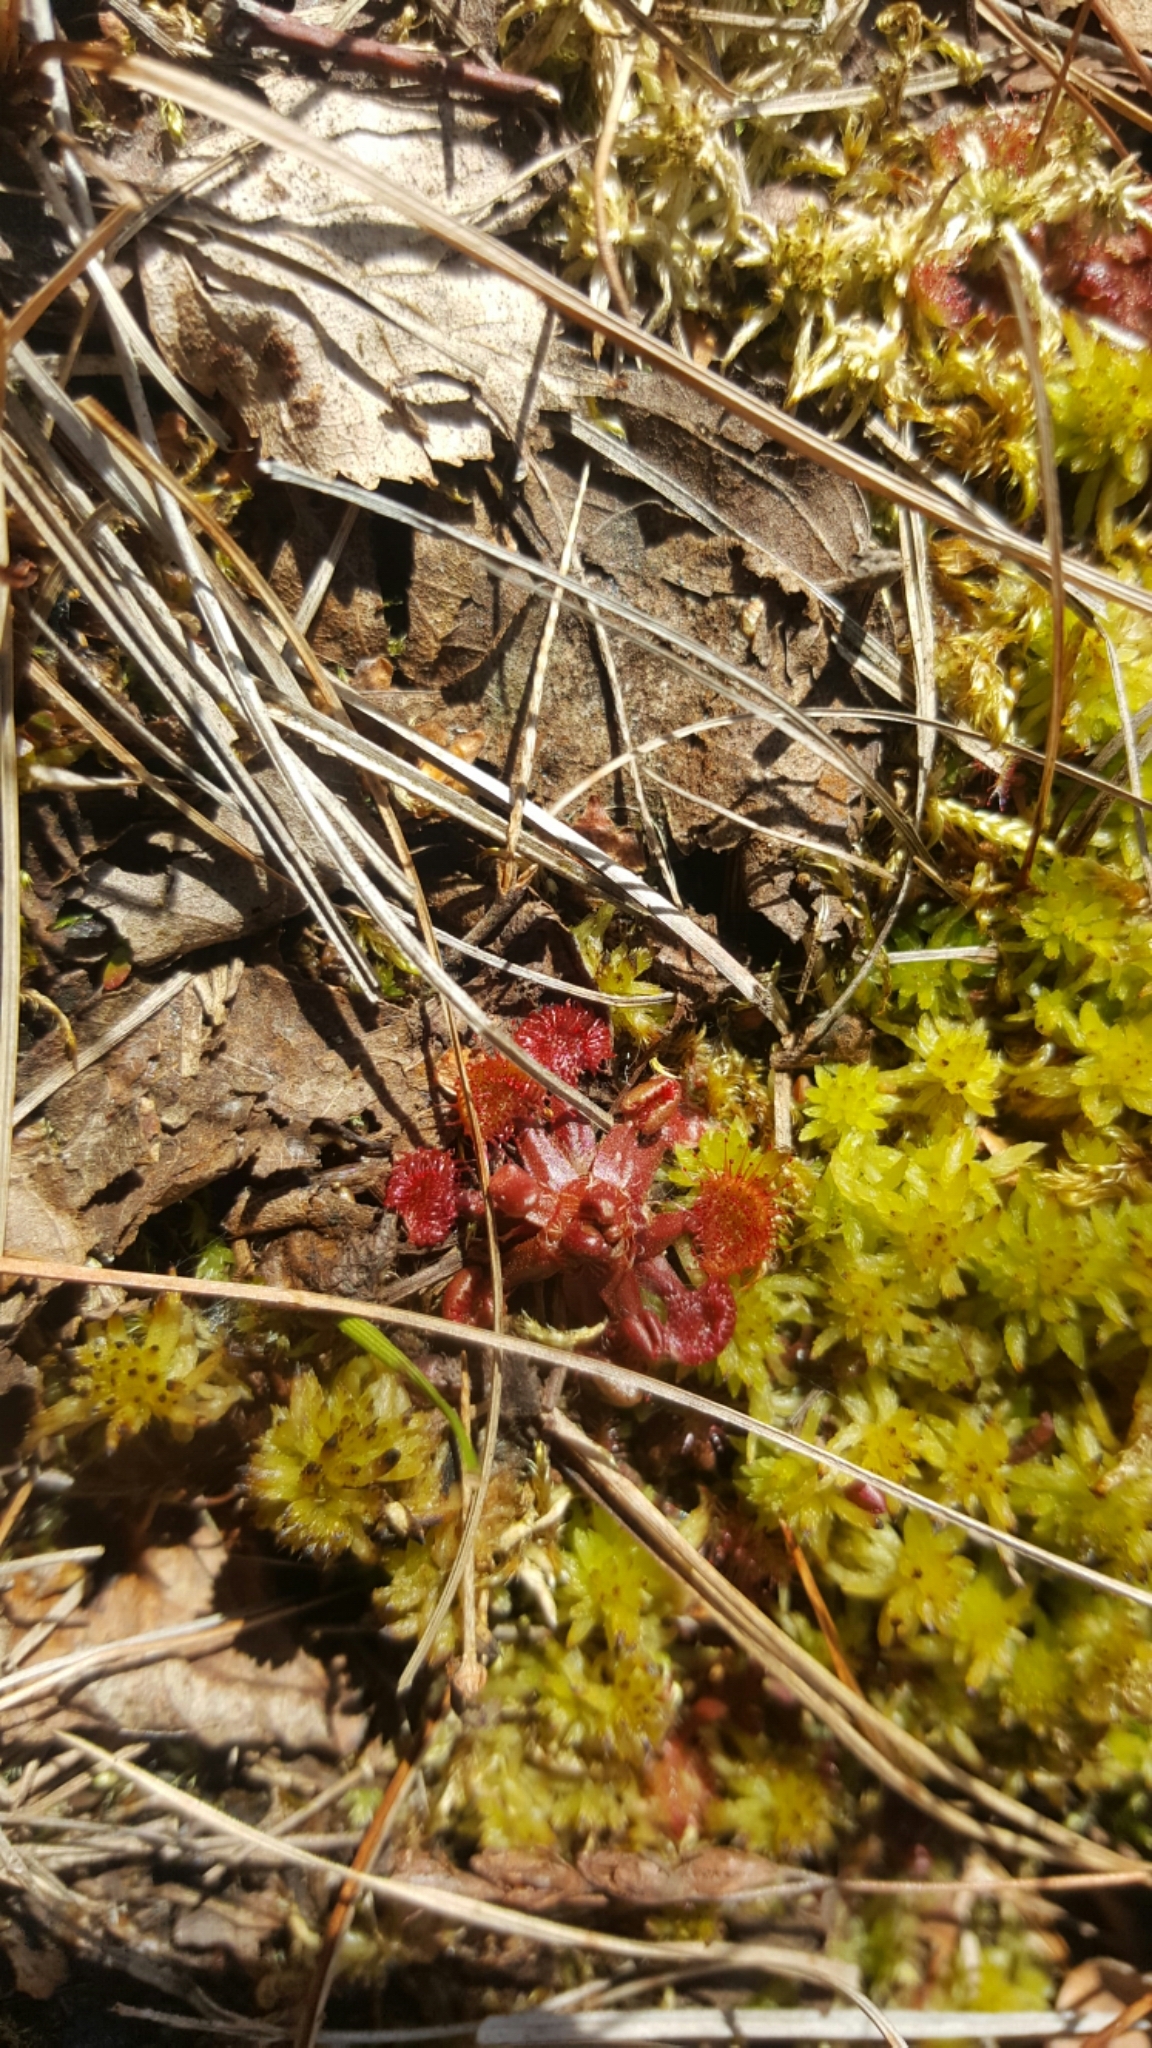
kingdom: Plantae
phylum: Tracheophyta
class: Magnoliopsida
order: Caryophyllales
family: Droseraceae
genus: Drosera
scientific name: Drosera rotundifolia
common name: Round-leaved sundew
